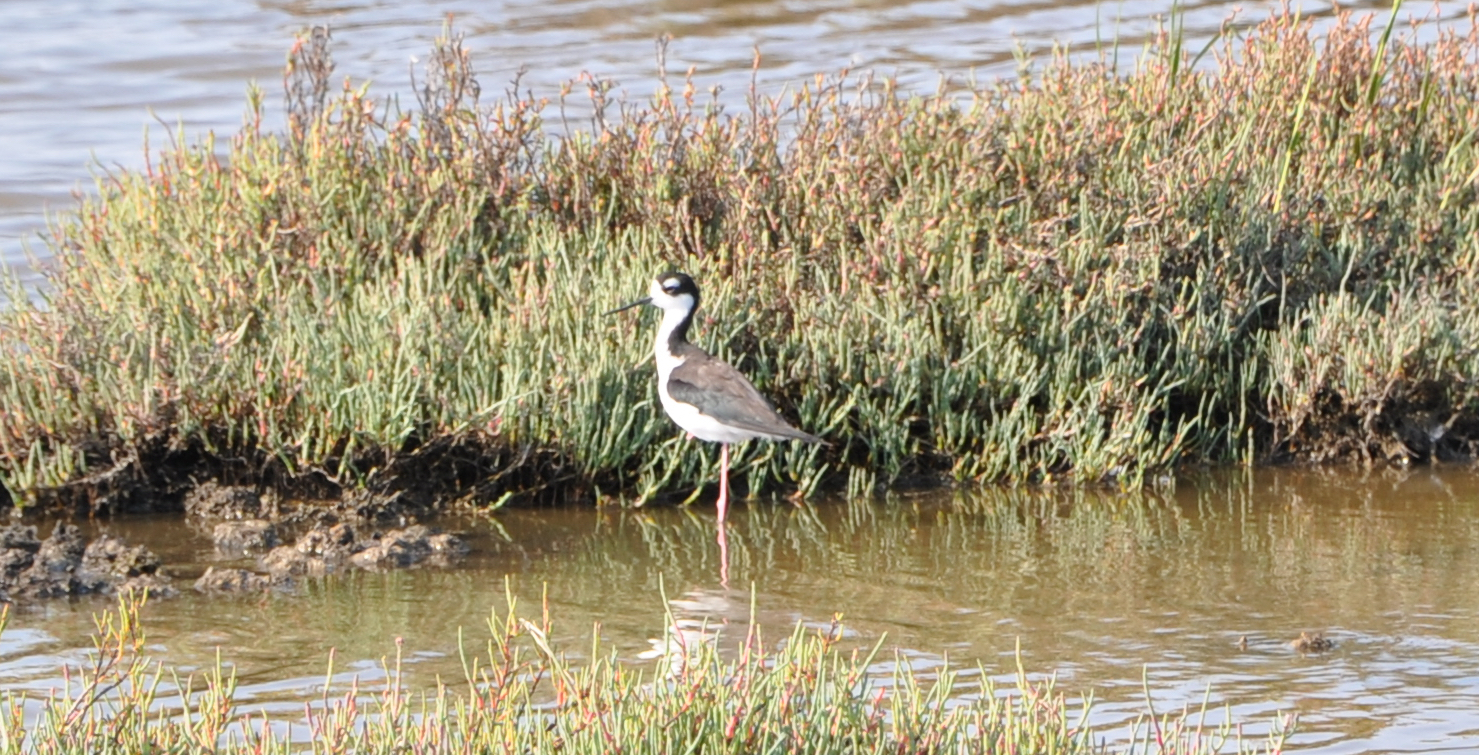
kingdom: Animalia
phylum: Chordata
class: Aves
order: Charadriiformes
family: Recurvirostridae
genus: Himantopus
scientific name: Himantopus mexicanus
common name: Black-necked stilt
